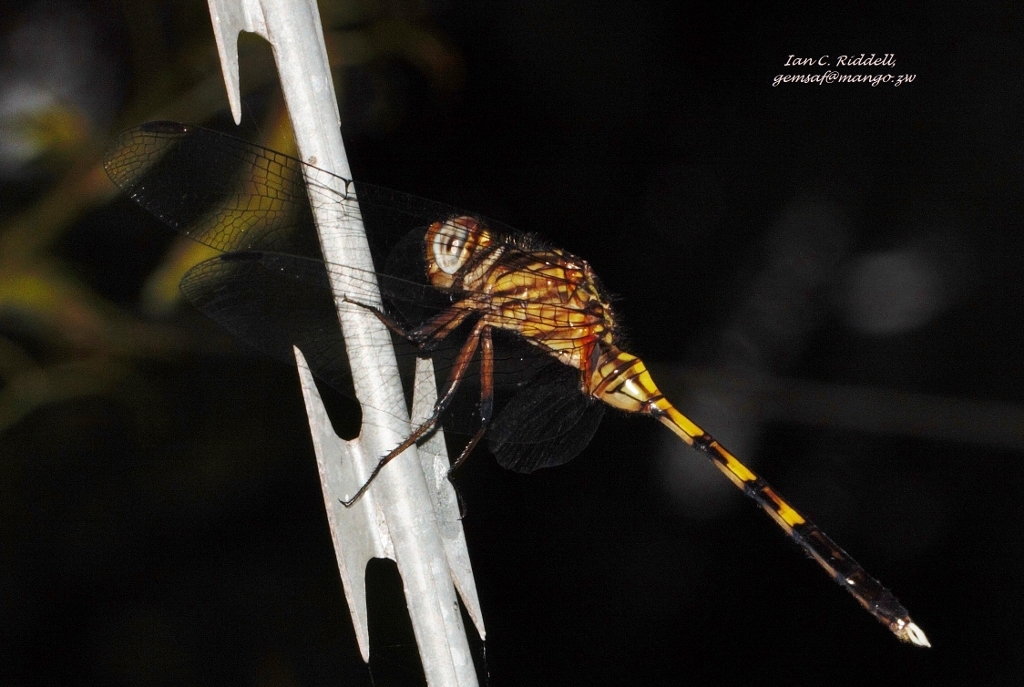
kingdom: Animalia
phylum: Arthropoda
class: Insecta
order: Odonata
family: Libellulidae
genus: Orthetrum
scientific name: Orthetrum stemmale
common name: Bold skimmer
